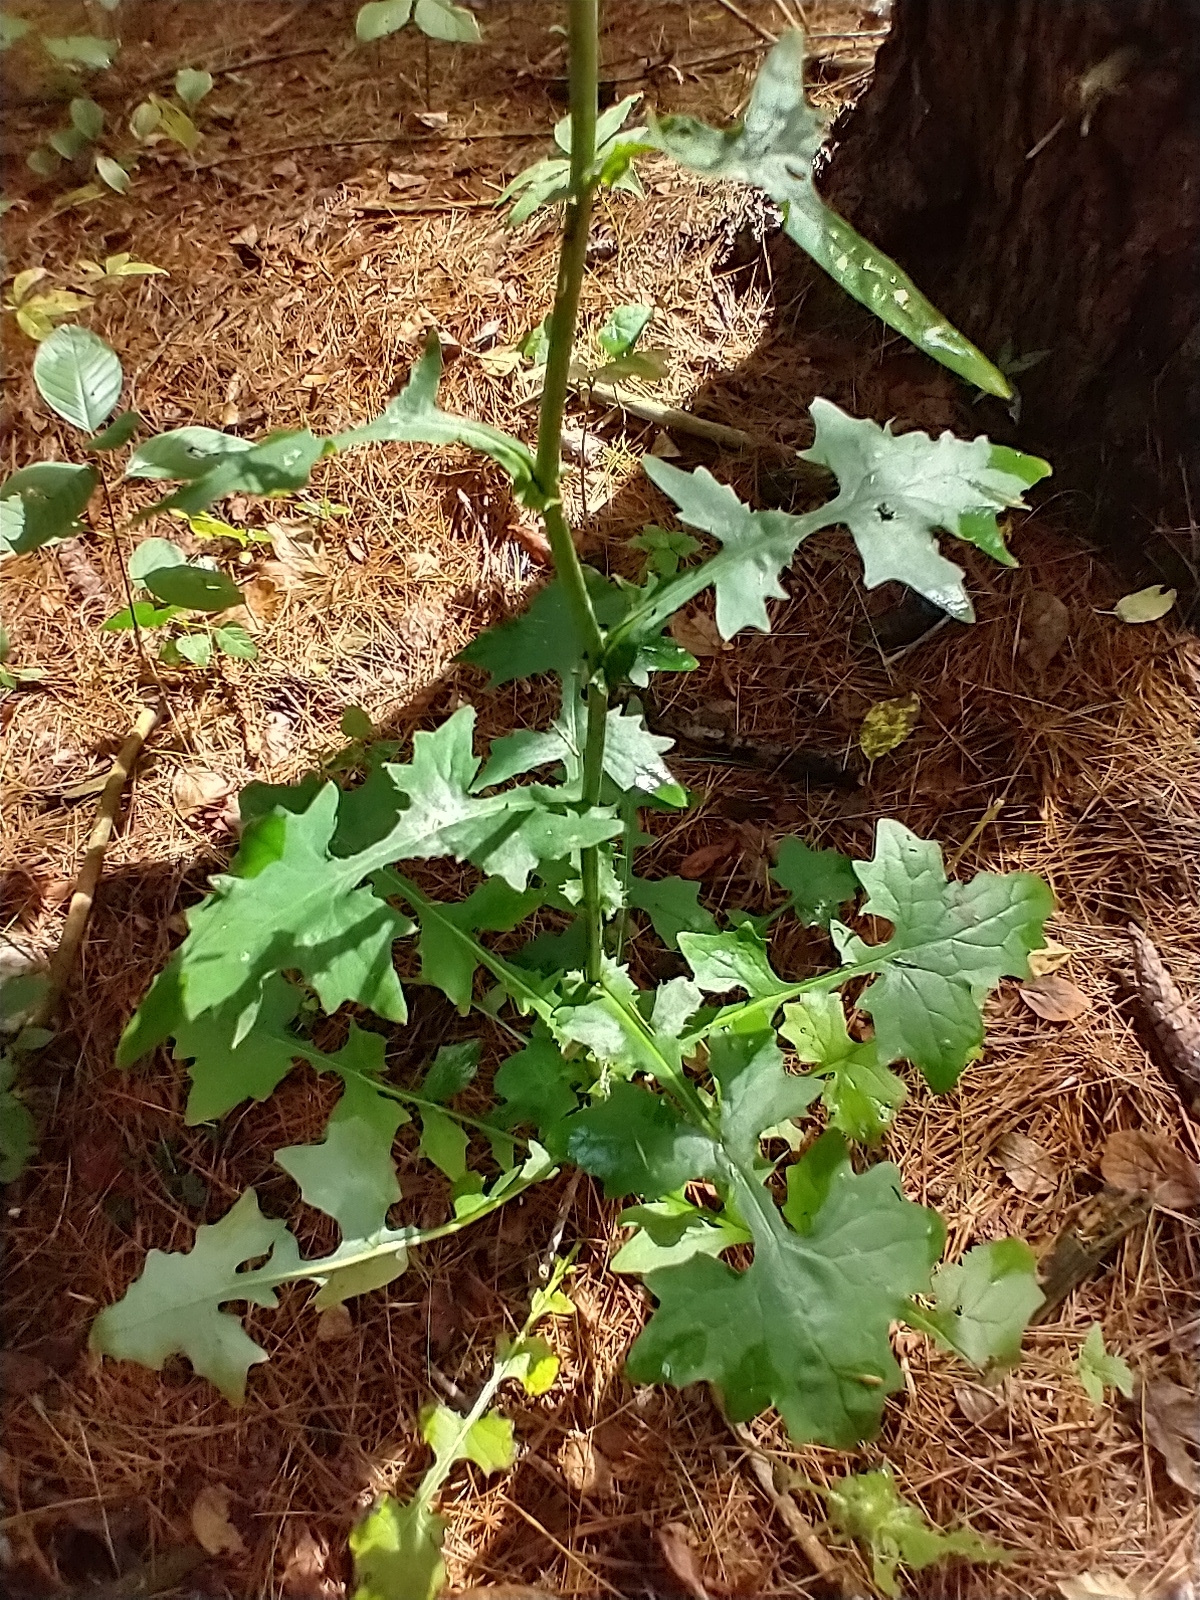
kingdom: Plantae
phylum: Tracheophyta
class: Magnoliopsida
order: Asterales
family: Asteraceae
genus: Mycelis
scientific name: Mycelis muralis
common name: Wall lettuce
